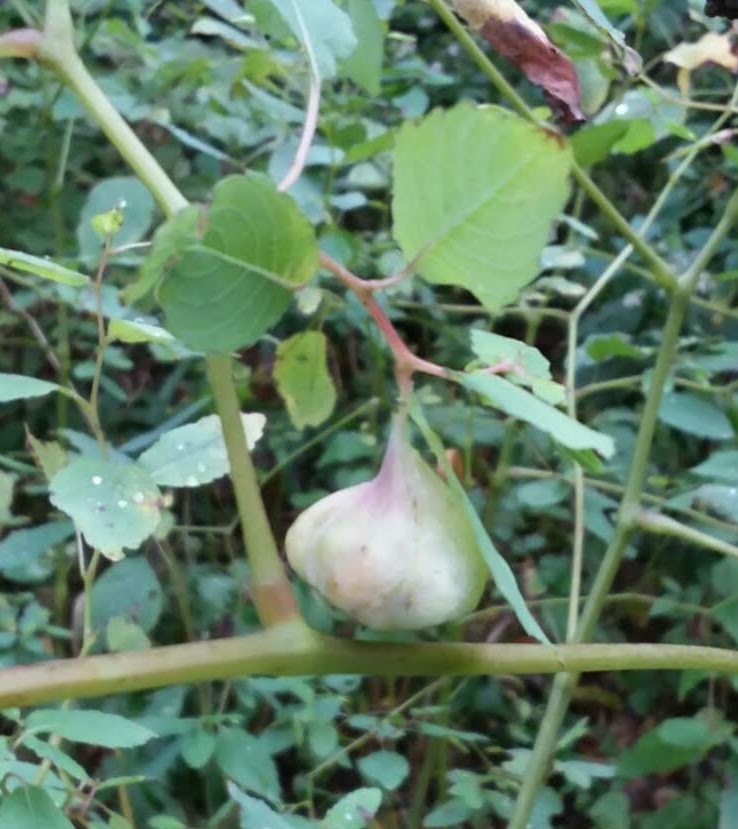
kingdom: Animalia
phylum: Arthropoda
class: Insecta
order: Diptera
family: Cecidomyiidae
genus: Schizomyia
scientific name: Schizomyia impatientis
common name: Jewelweed gall midge
